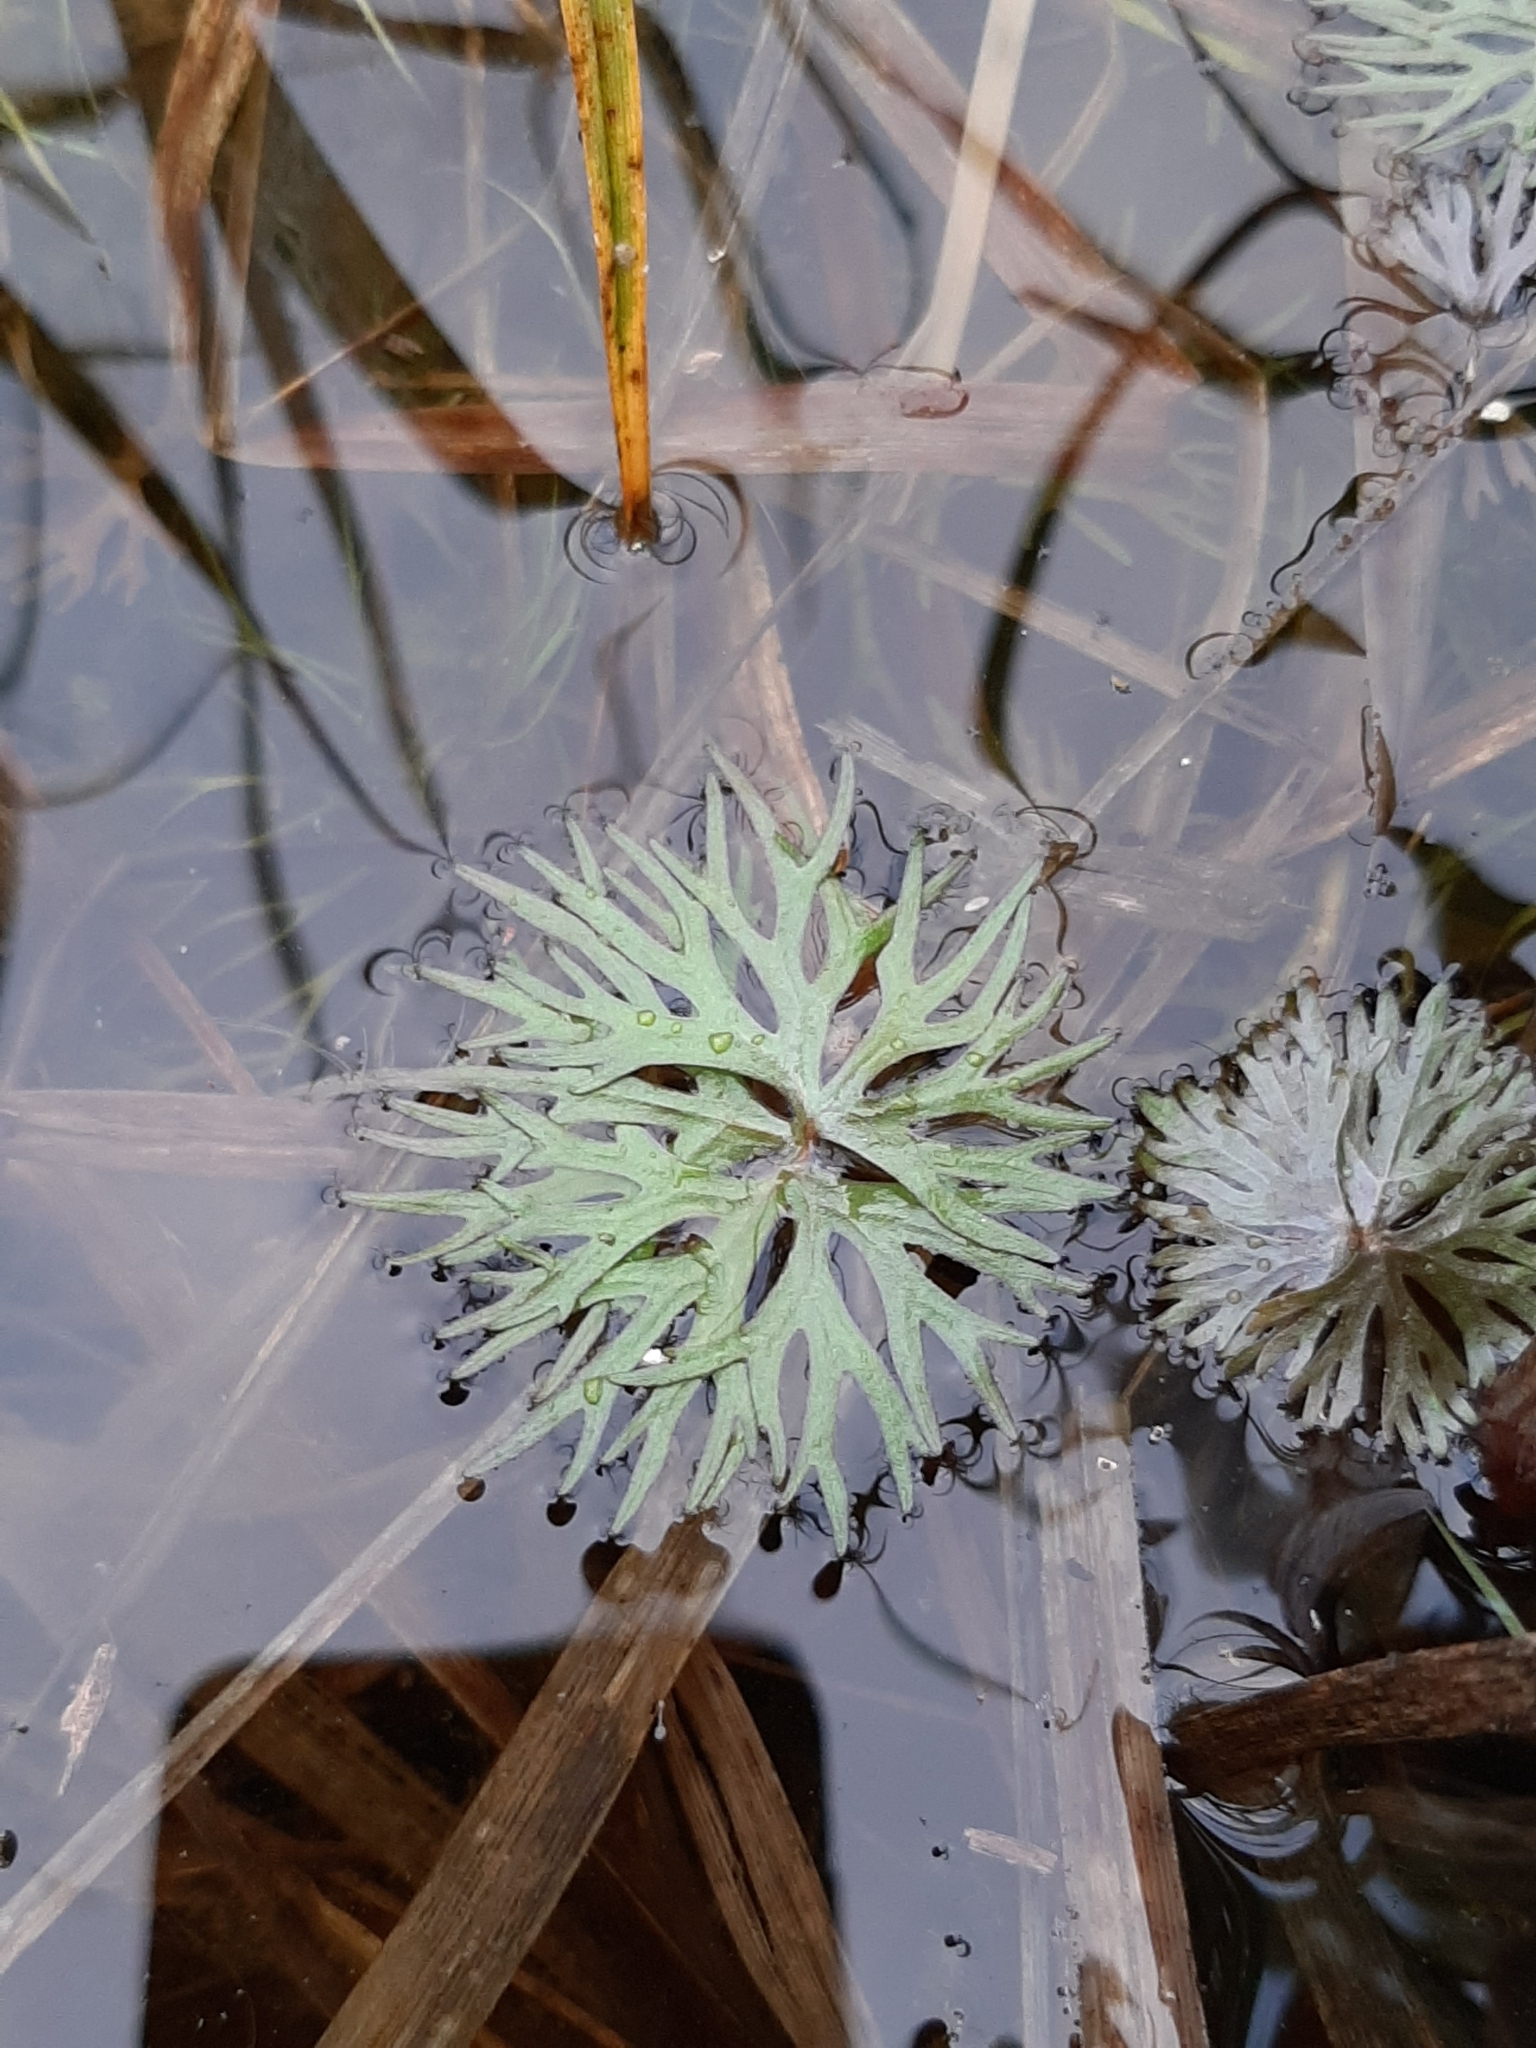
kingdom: Plantae
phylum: Tracheophyta
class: Magnoliopsida
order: Ranunculales
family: Ranunculaceae
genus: Ranunculus
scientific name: Ranunculus flabellaris
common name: Yellow water-crowfoot
